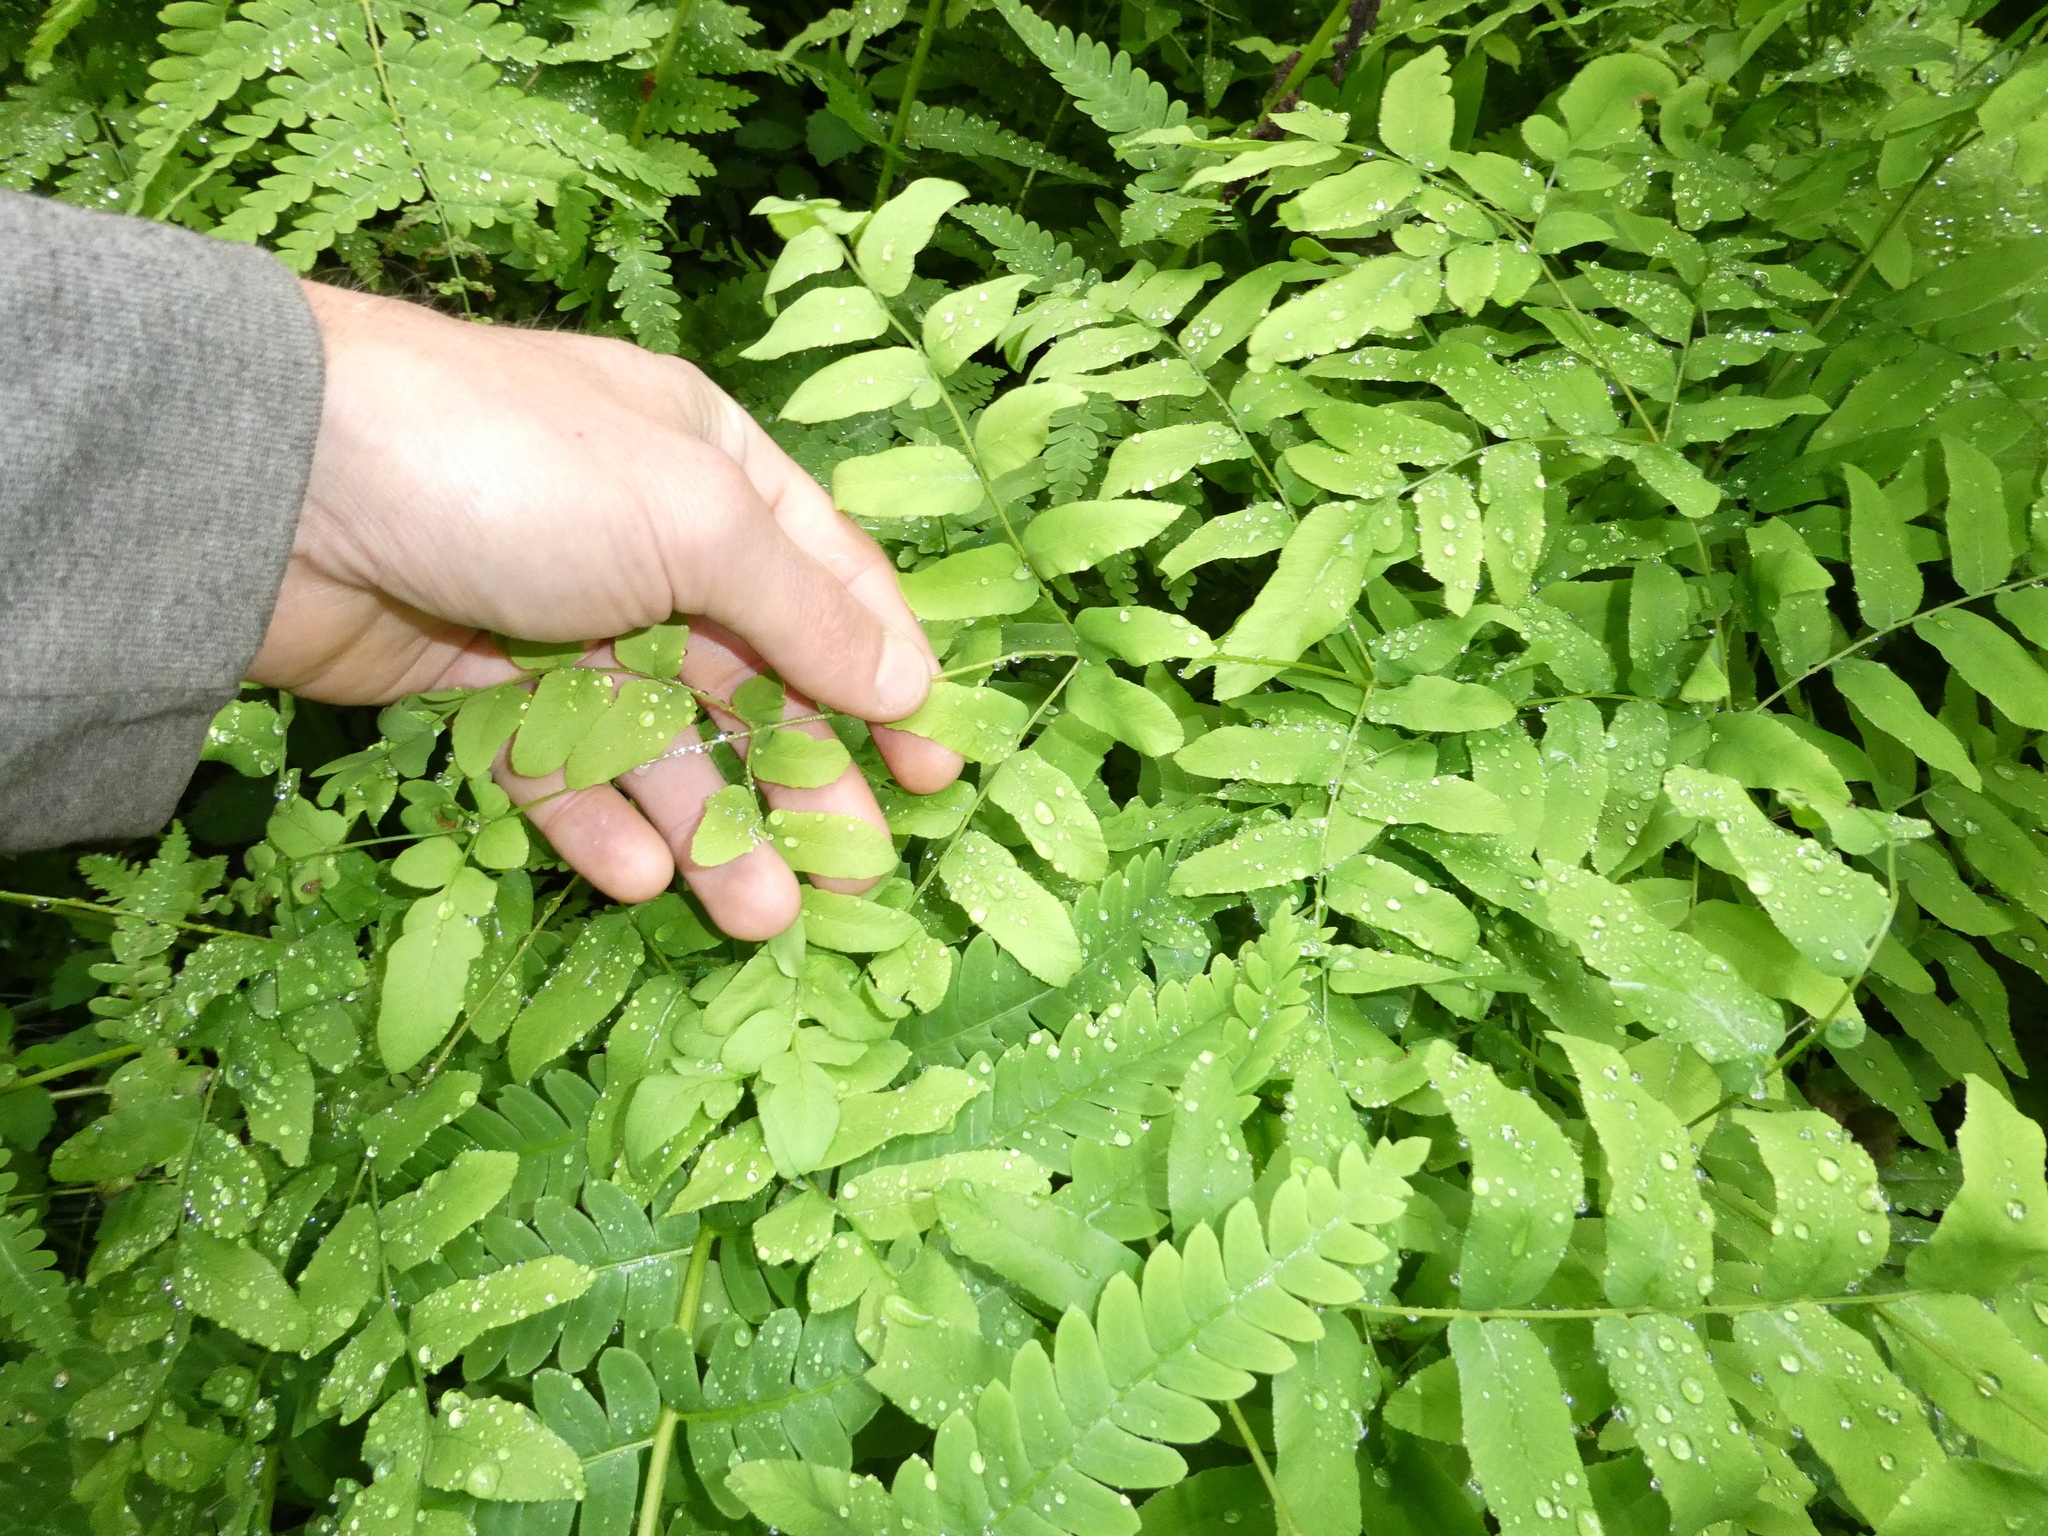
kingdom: Plantae
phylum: Tracheophyta
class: Polypodiopsida
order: Osmundales
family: Osmundaceae
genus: Osmunda
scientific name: Osmunda spectabilis
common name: American royal fern
